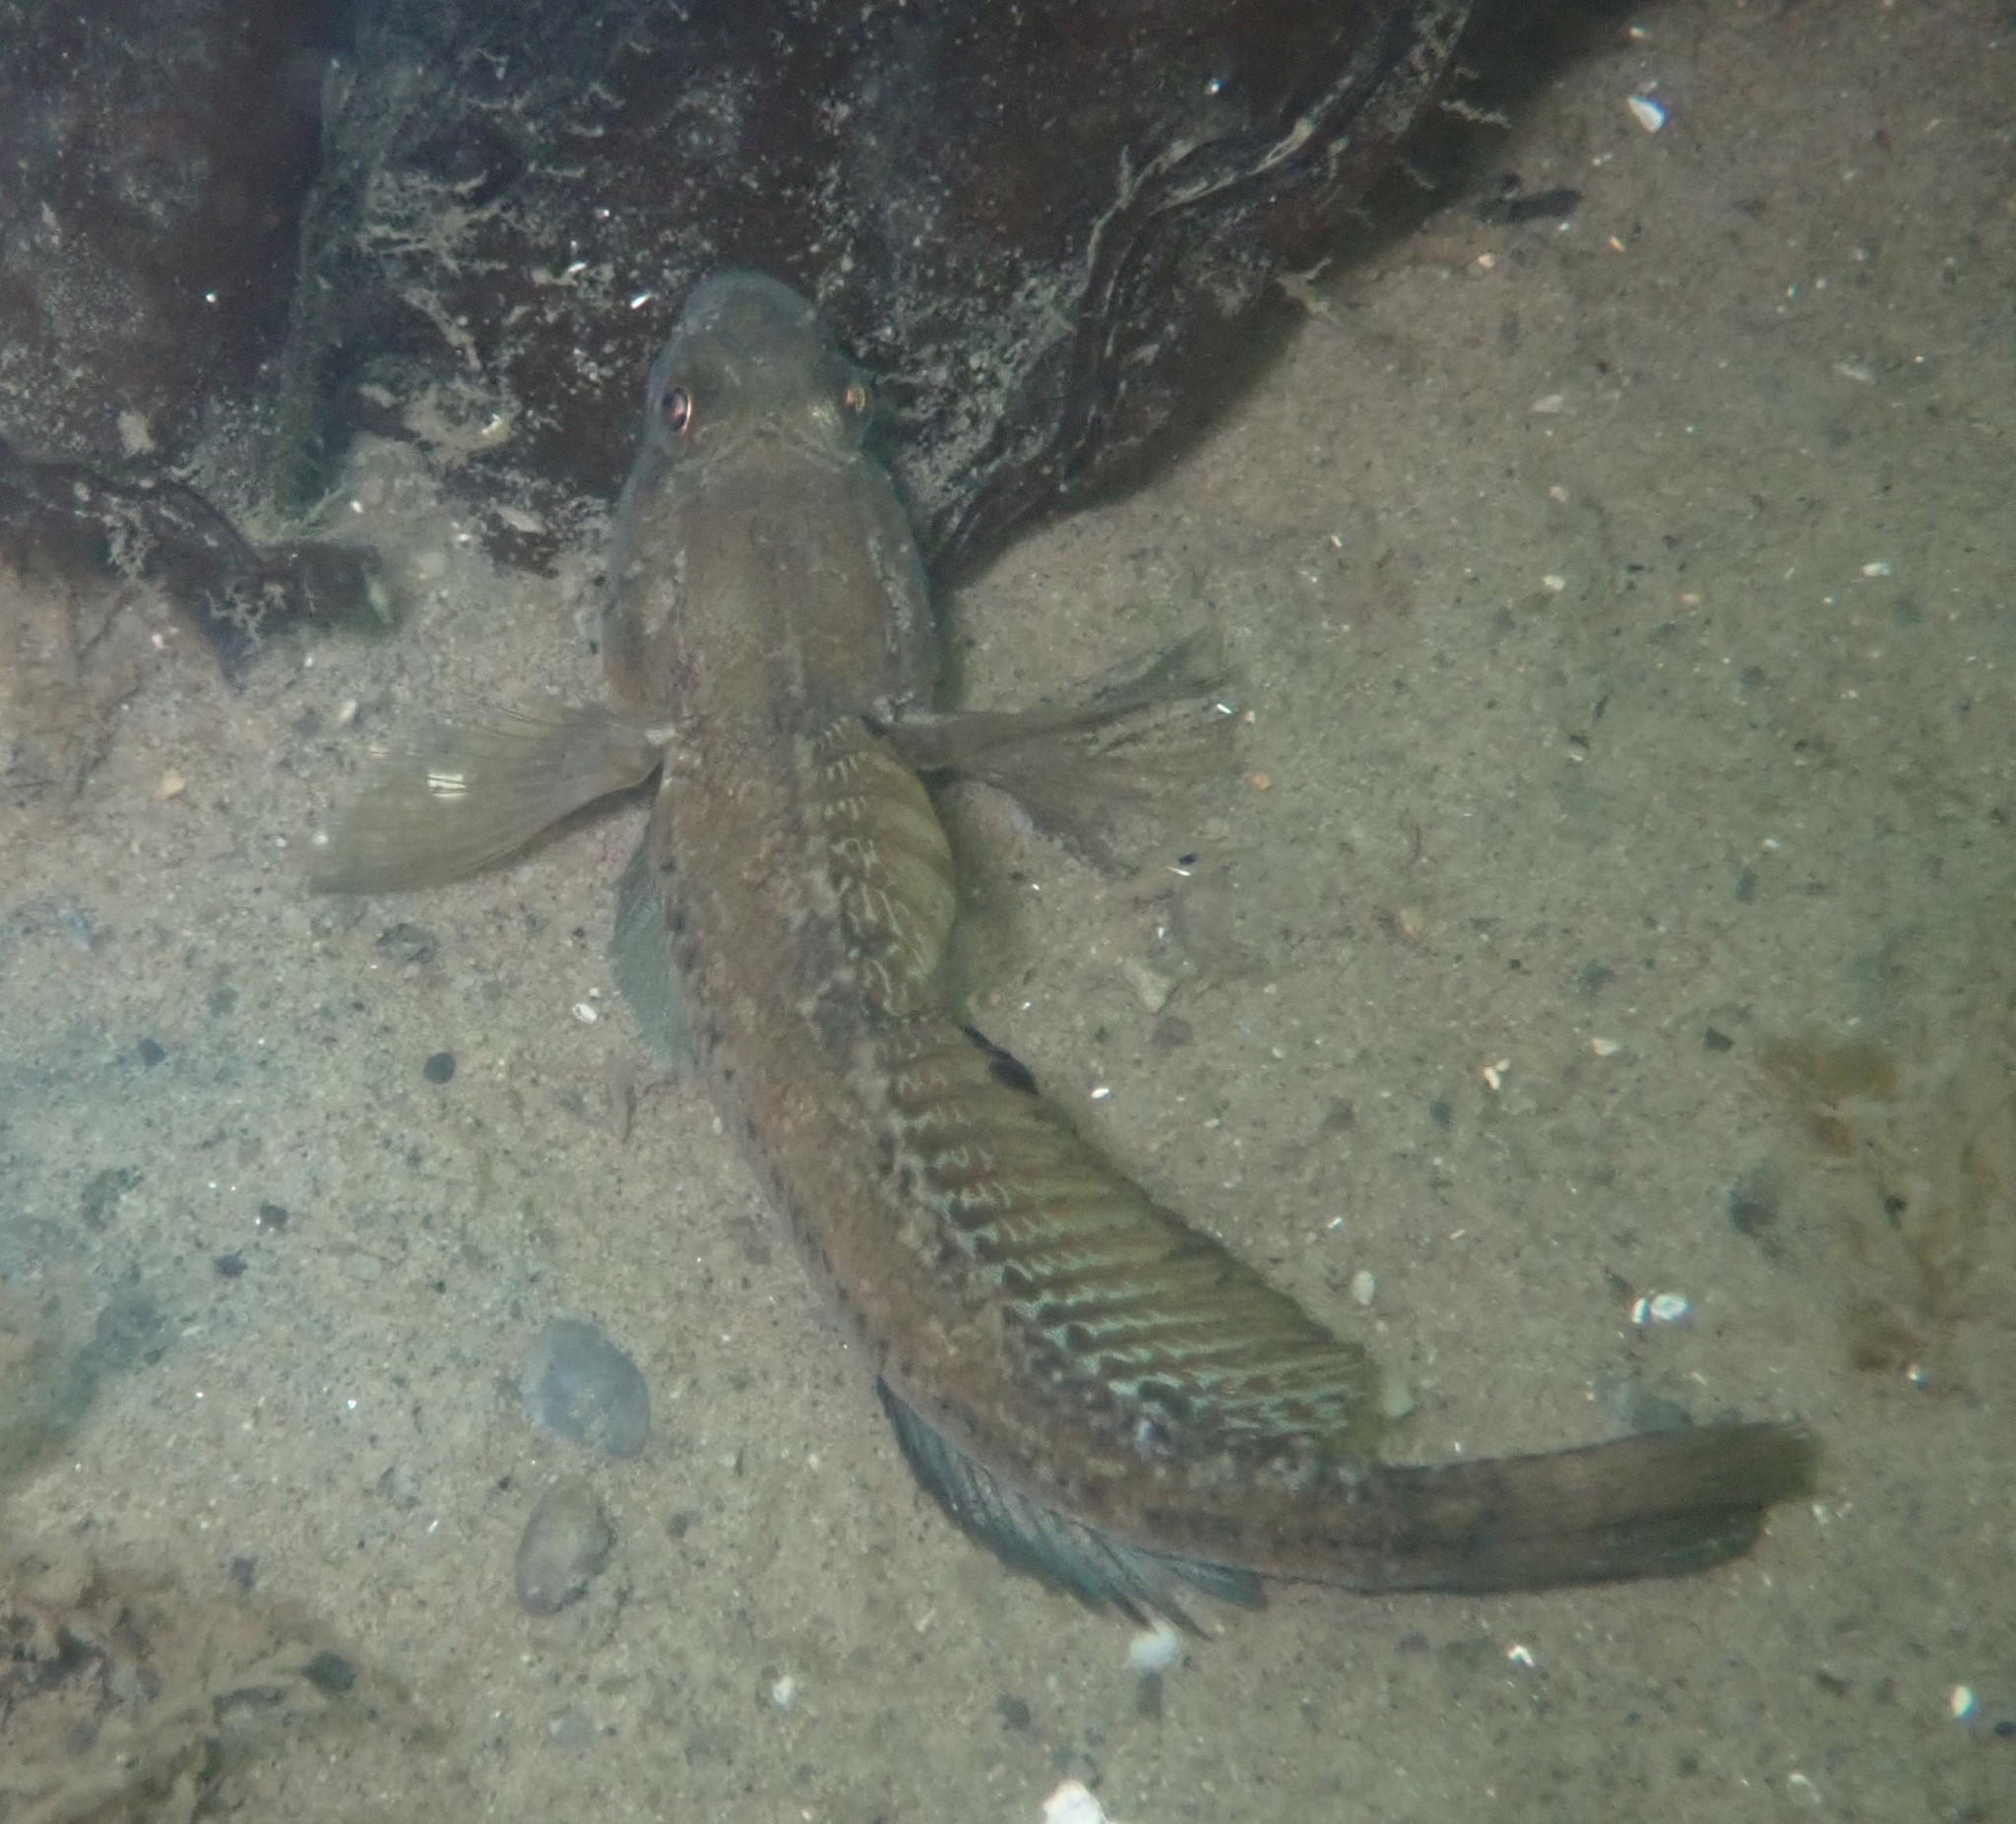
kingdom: Animalia
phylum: Chordata
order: Perciformes
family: Gobiidae
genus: Gobius
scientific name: Gobius niger
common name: Black goby
